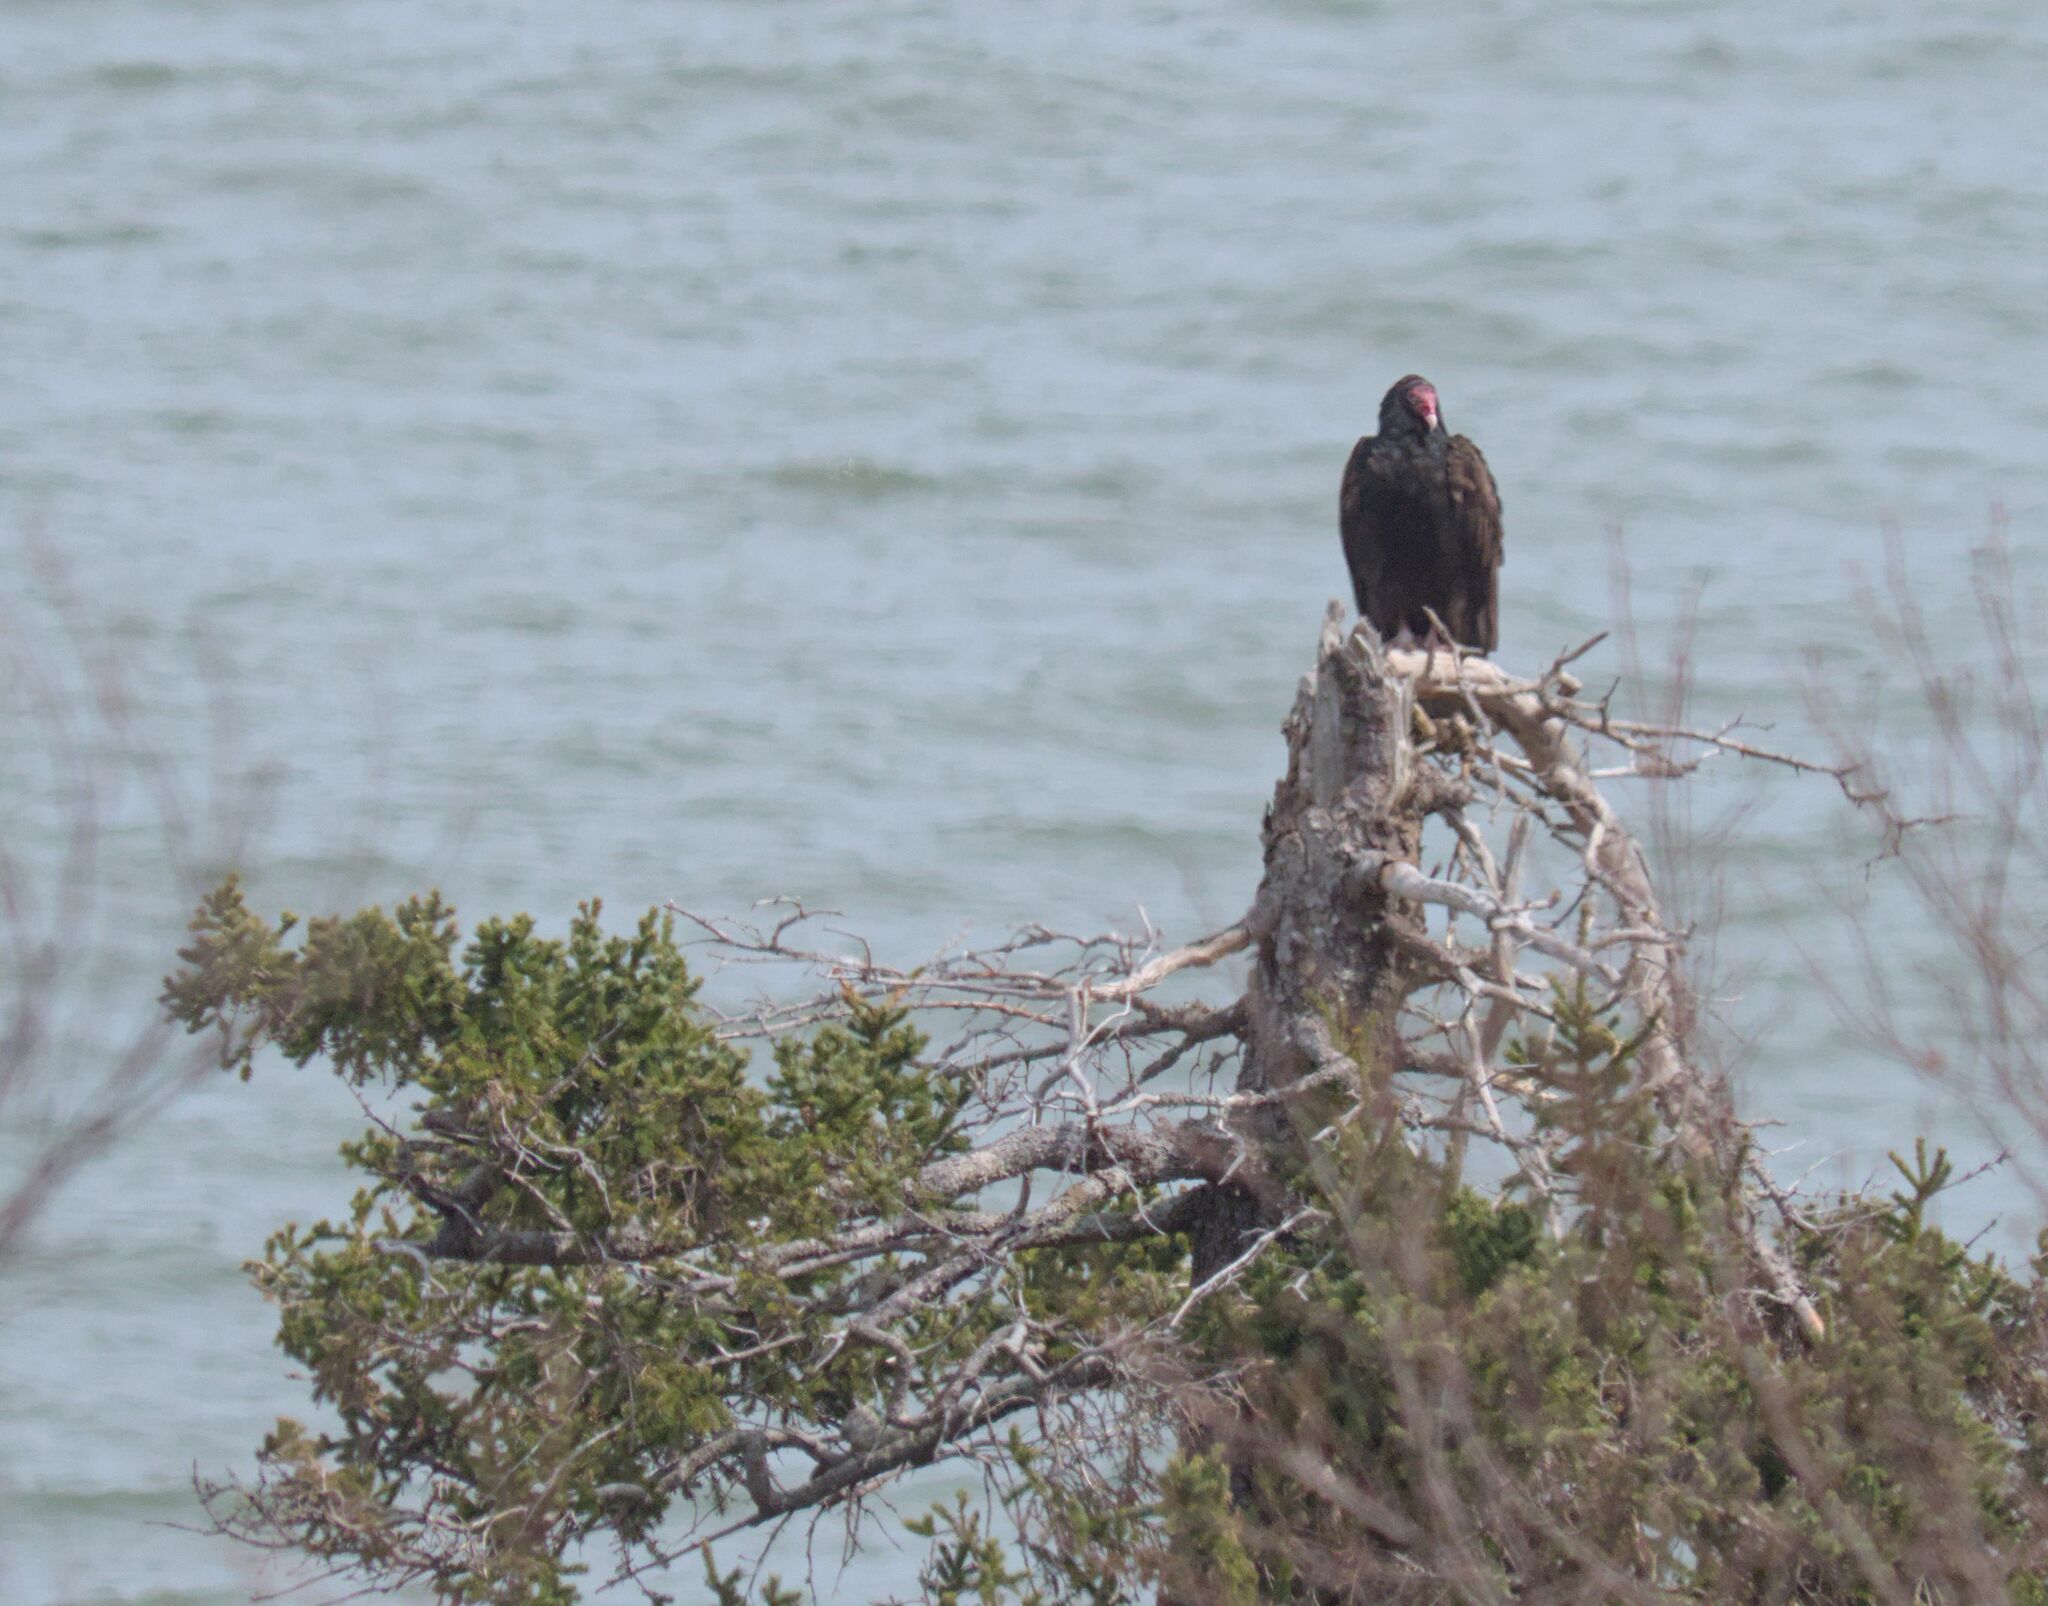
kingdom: Animalia
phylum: Chordata
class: Aves
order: Accipitriformes
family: Cathartidae
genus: Cathartes
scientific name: Cathartes aura
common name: Turkey vulture
